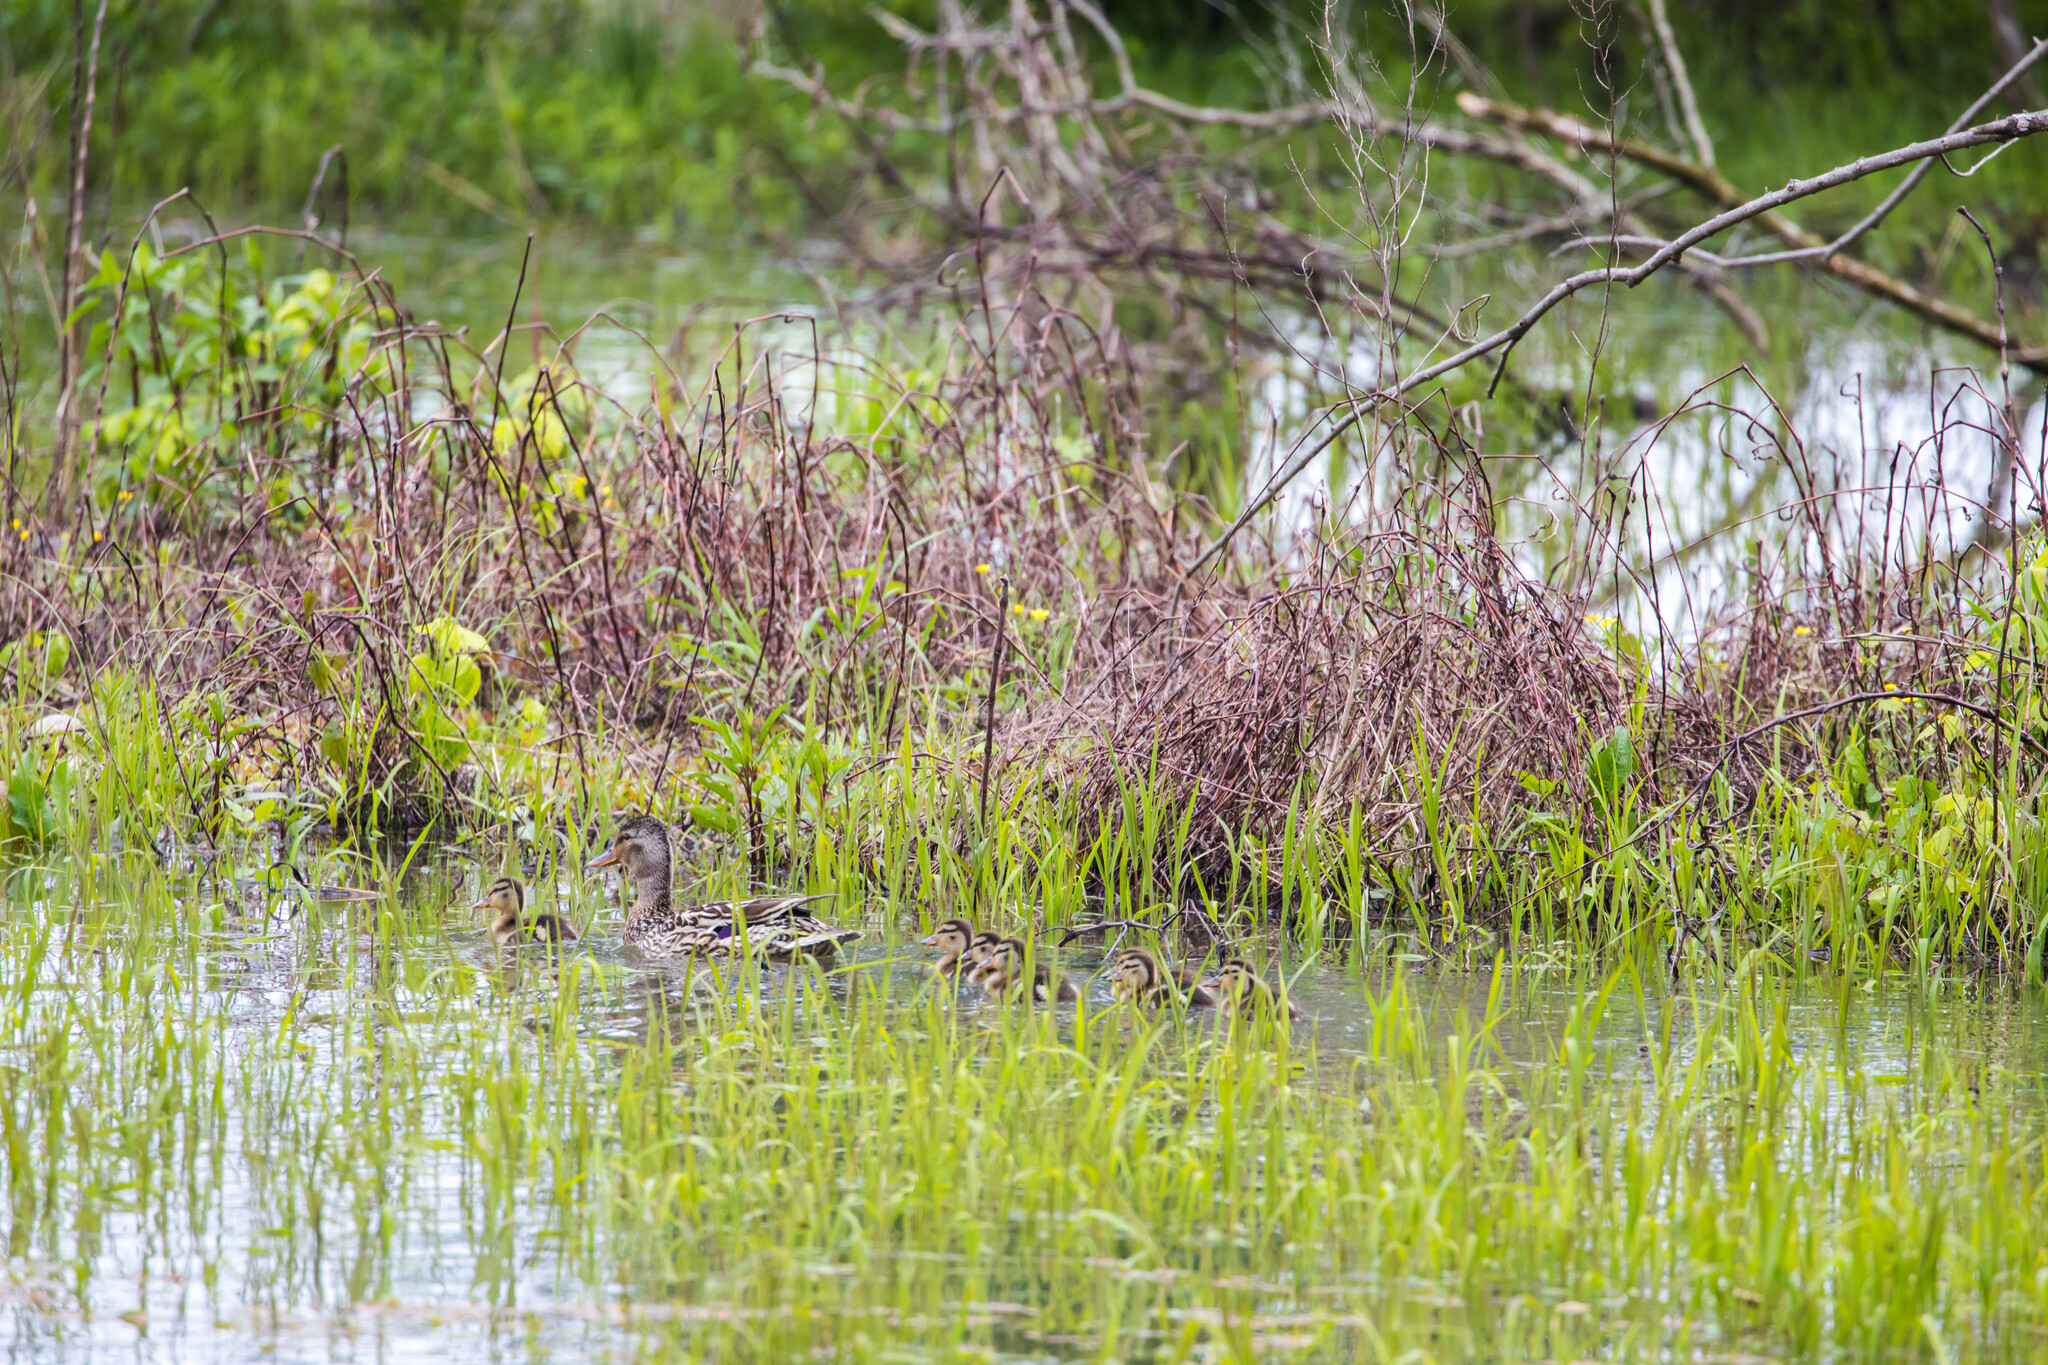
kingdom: Animalia
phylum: Chordata
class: Aves
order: Anseriformes
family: Anatidae
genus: Anas
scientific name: Anas platyrhynchos
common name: Mallard
